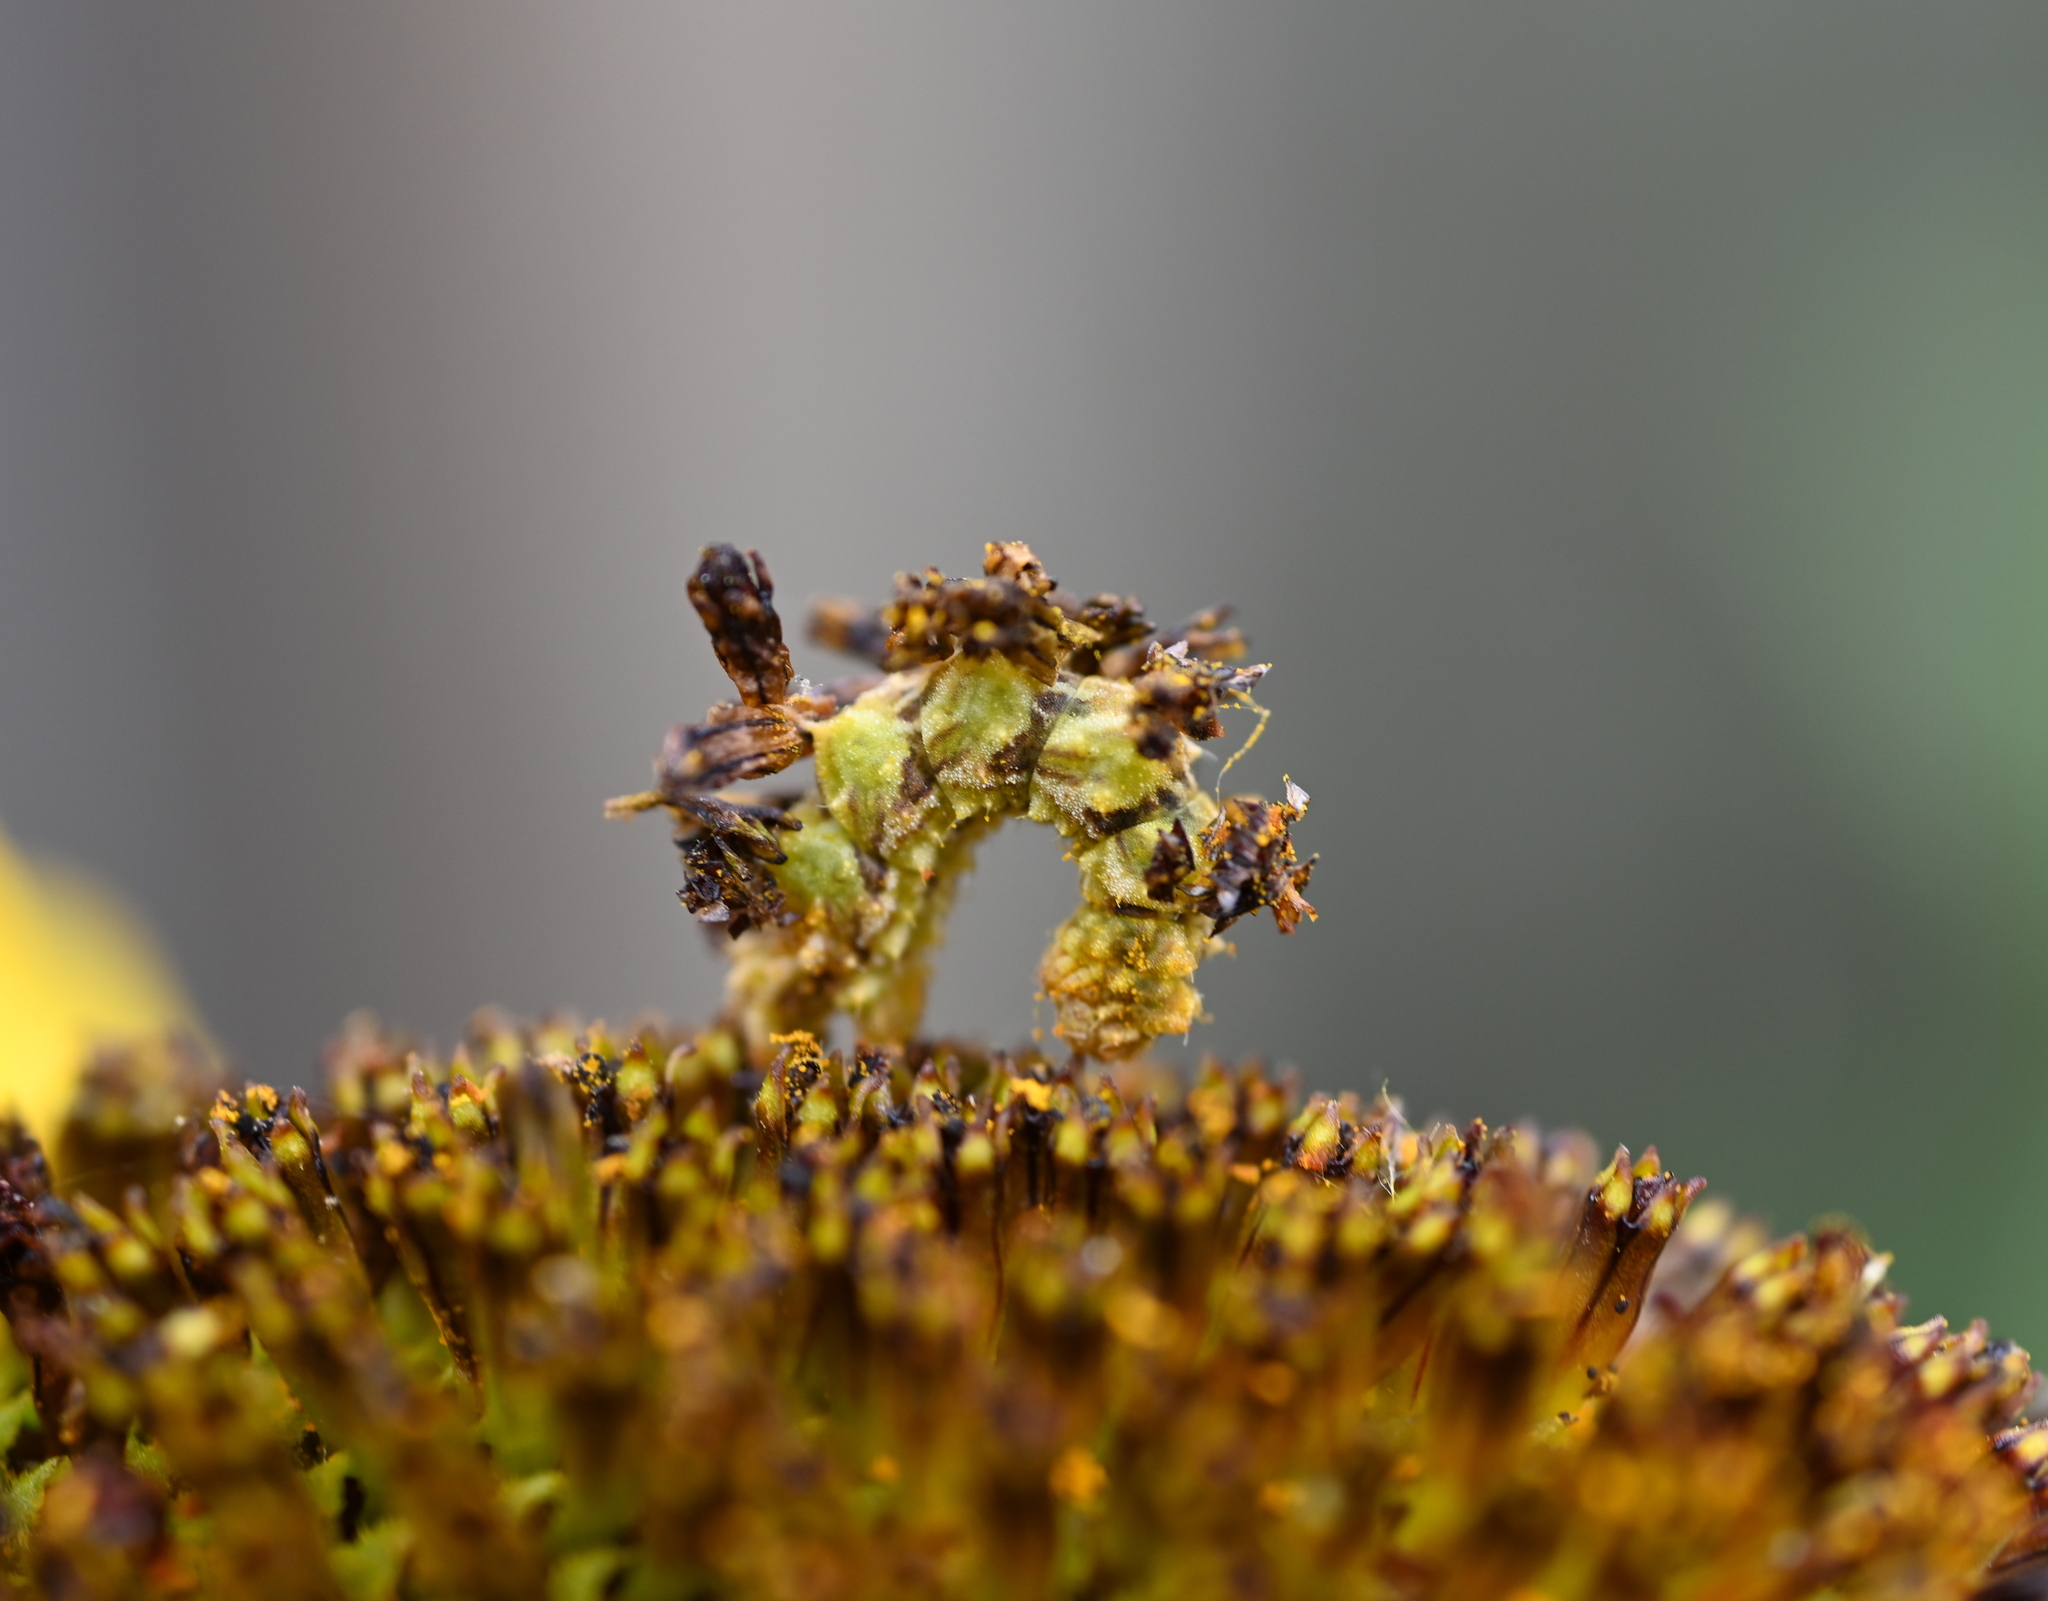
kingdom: Animalia
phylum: Arthropoda
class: Insecta
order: Lepidoptera
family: Geometridae
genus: Synchlora
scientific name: Synchlora
